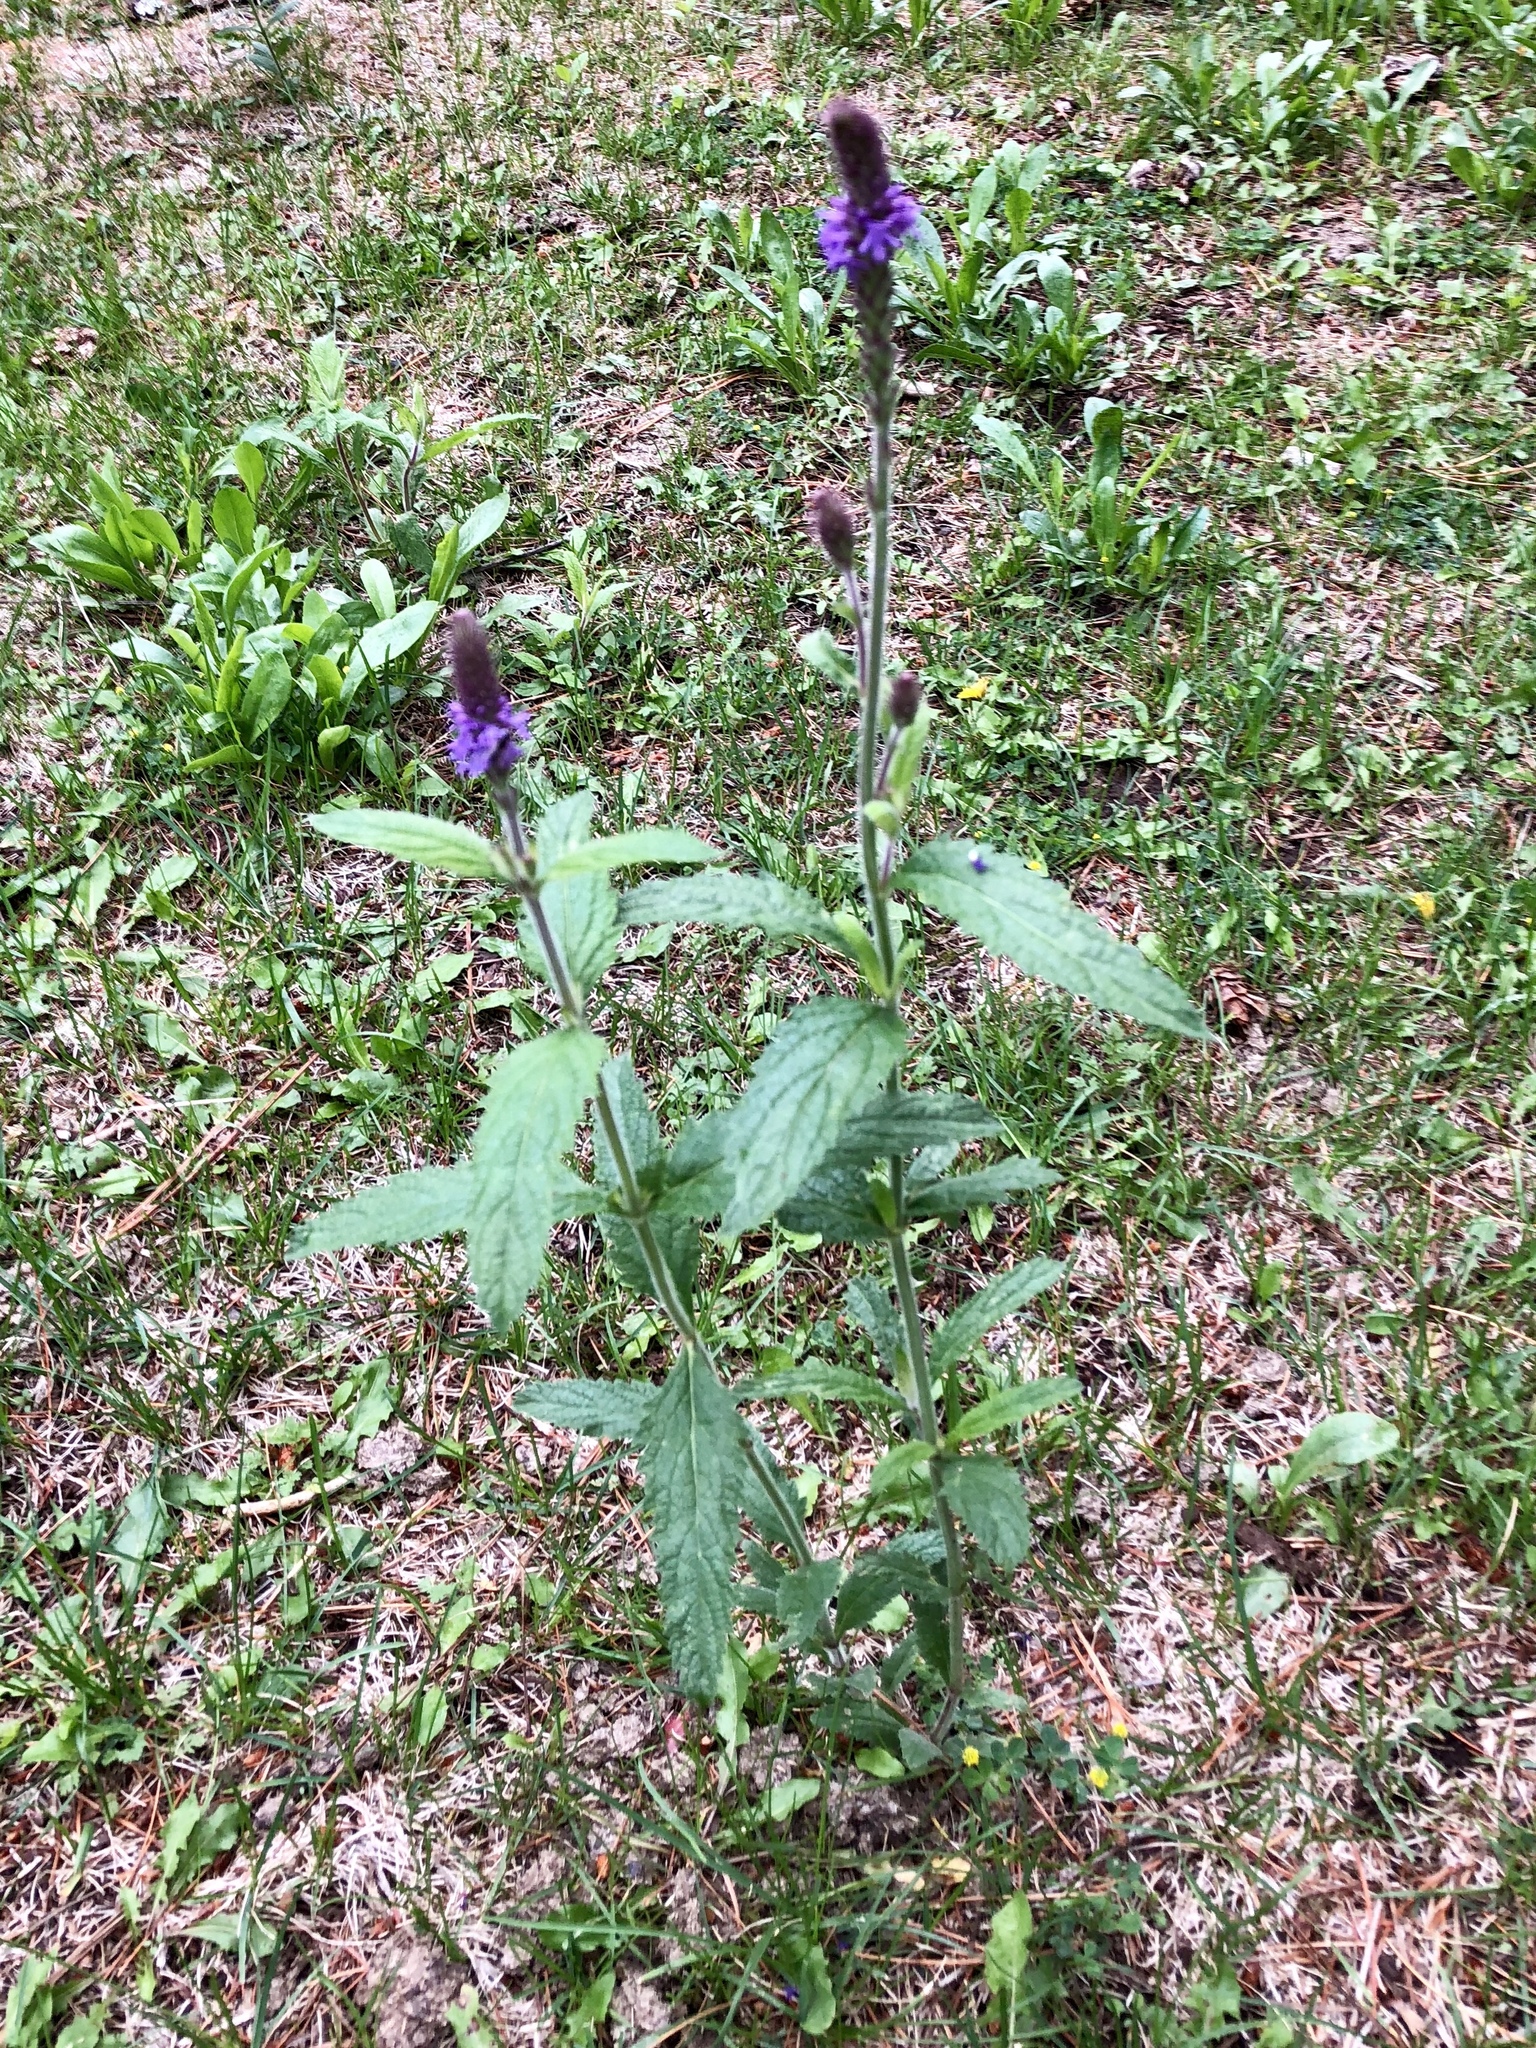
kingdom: Plantae
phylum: Tracheophyta
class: Magnoliopsida
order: Lamiales
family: Verbenaceae
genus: Verbena
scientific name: Verbena macdougalii
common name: New mexico vervain
